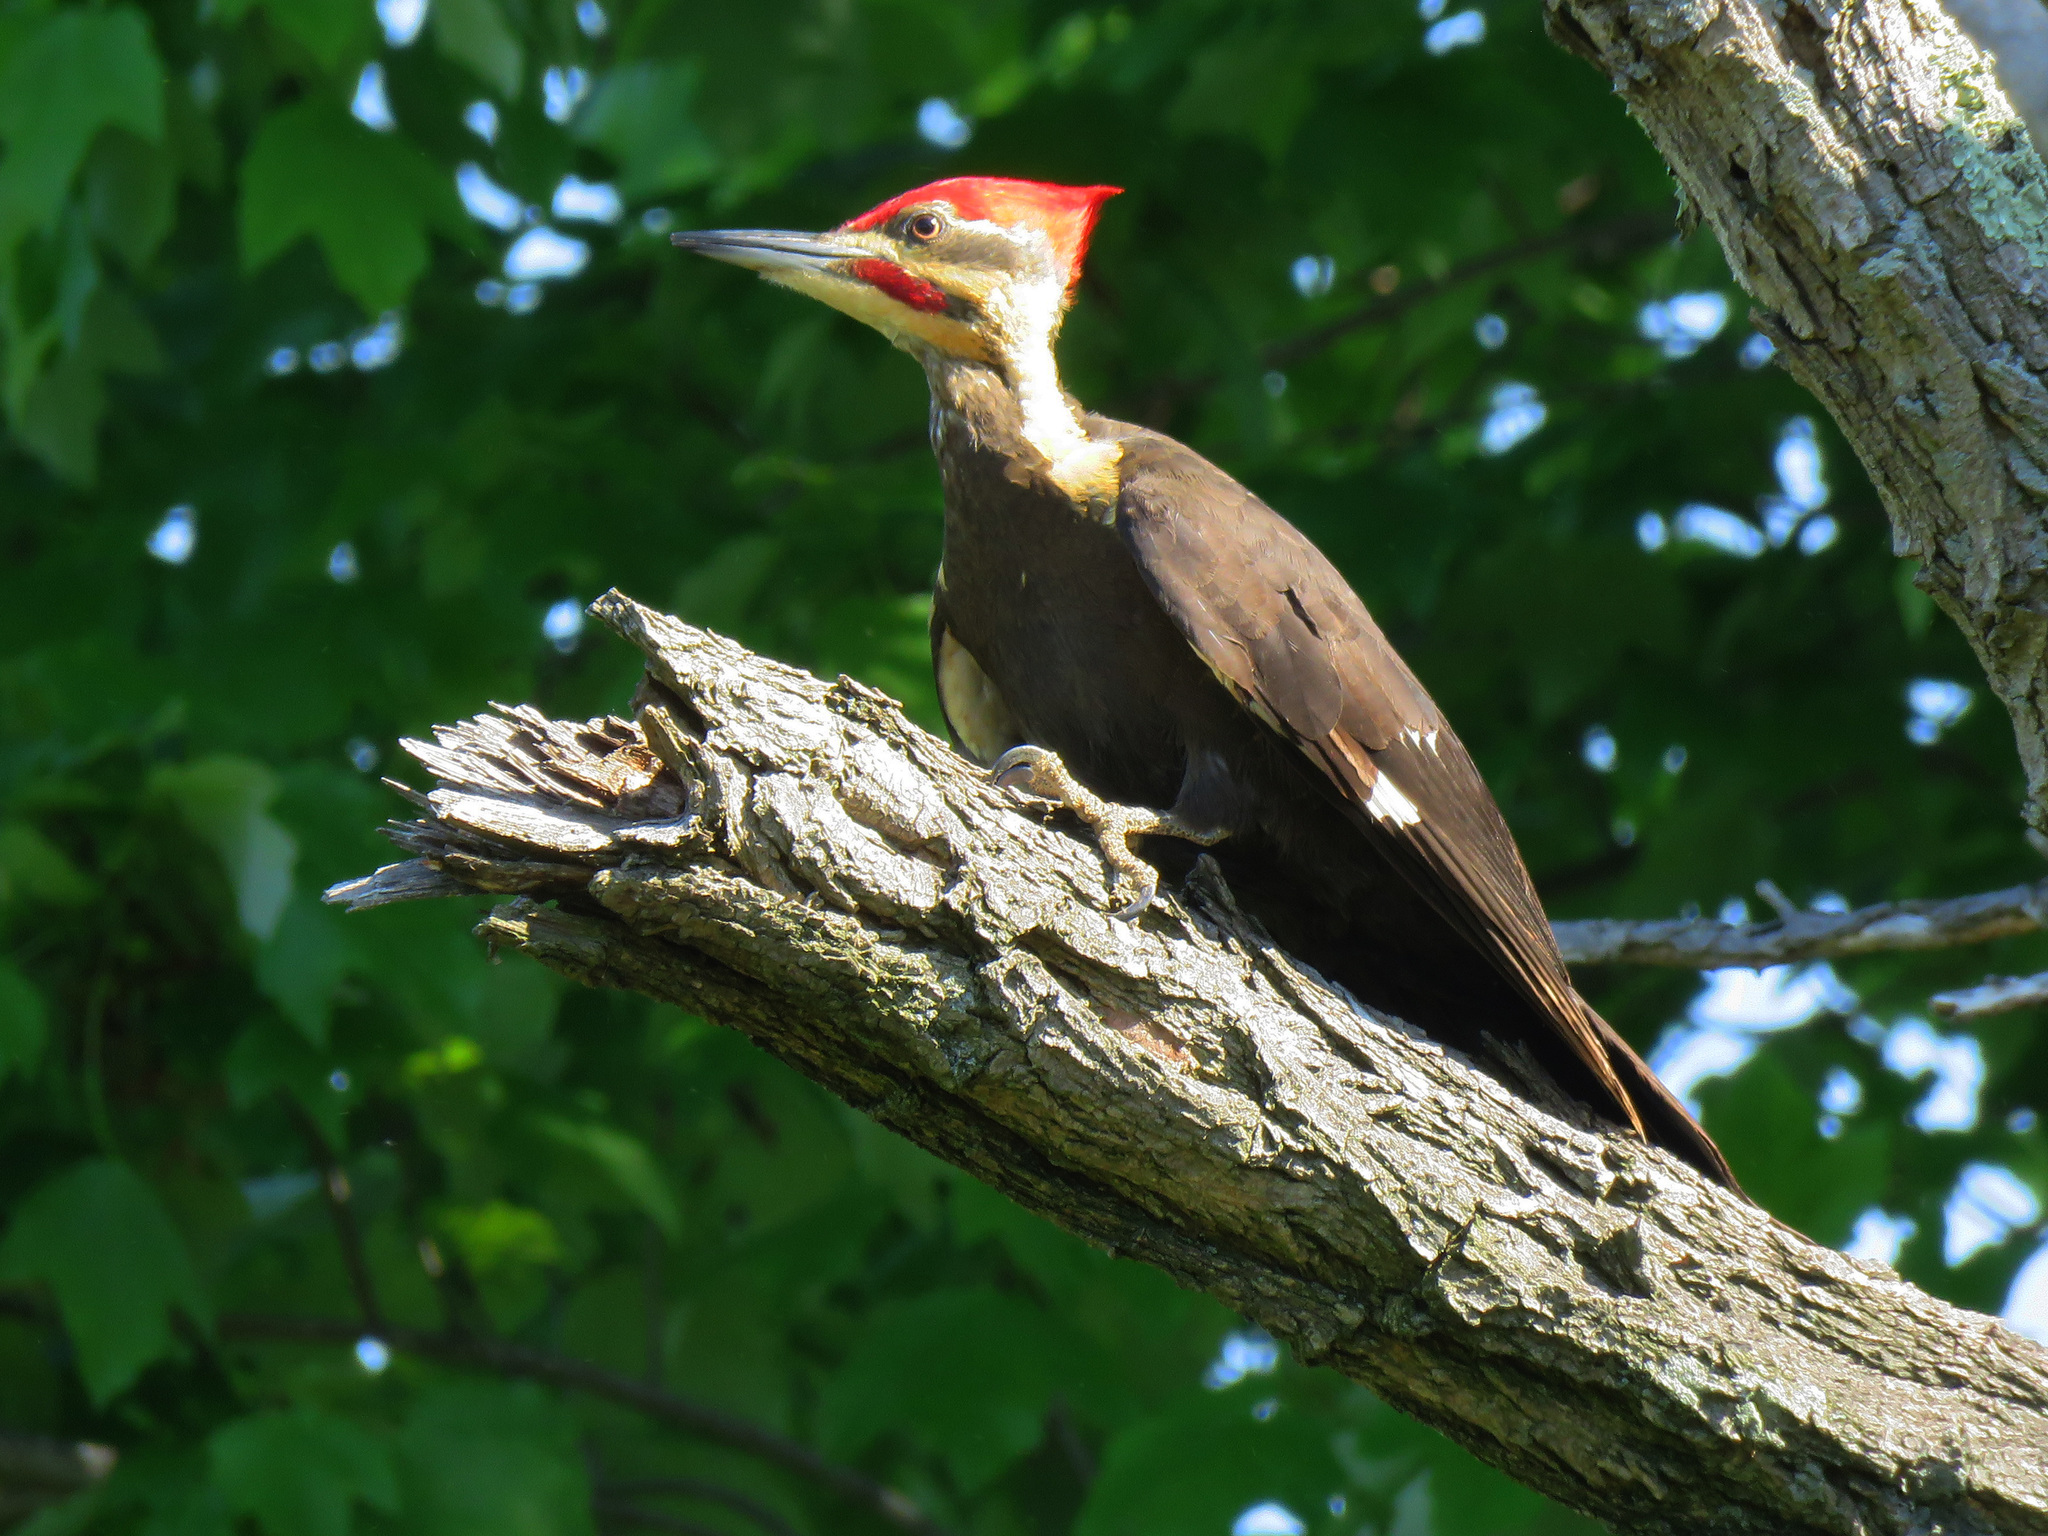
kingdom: Animalia
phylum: Chordata
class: Aves
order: Piciformes
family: Picidae
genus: Dryocopus
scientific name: Dryocopus pileatus
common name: Pileated woodpecker
